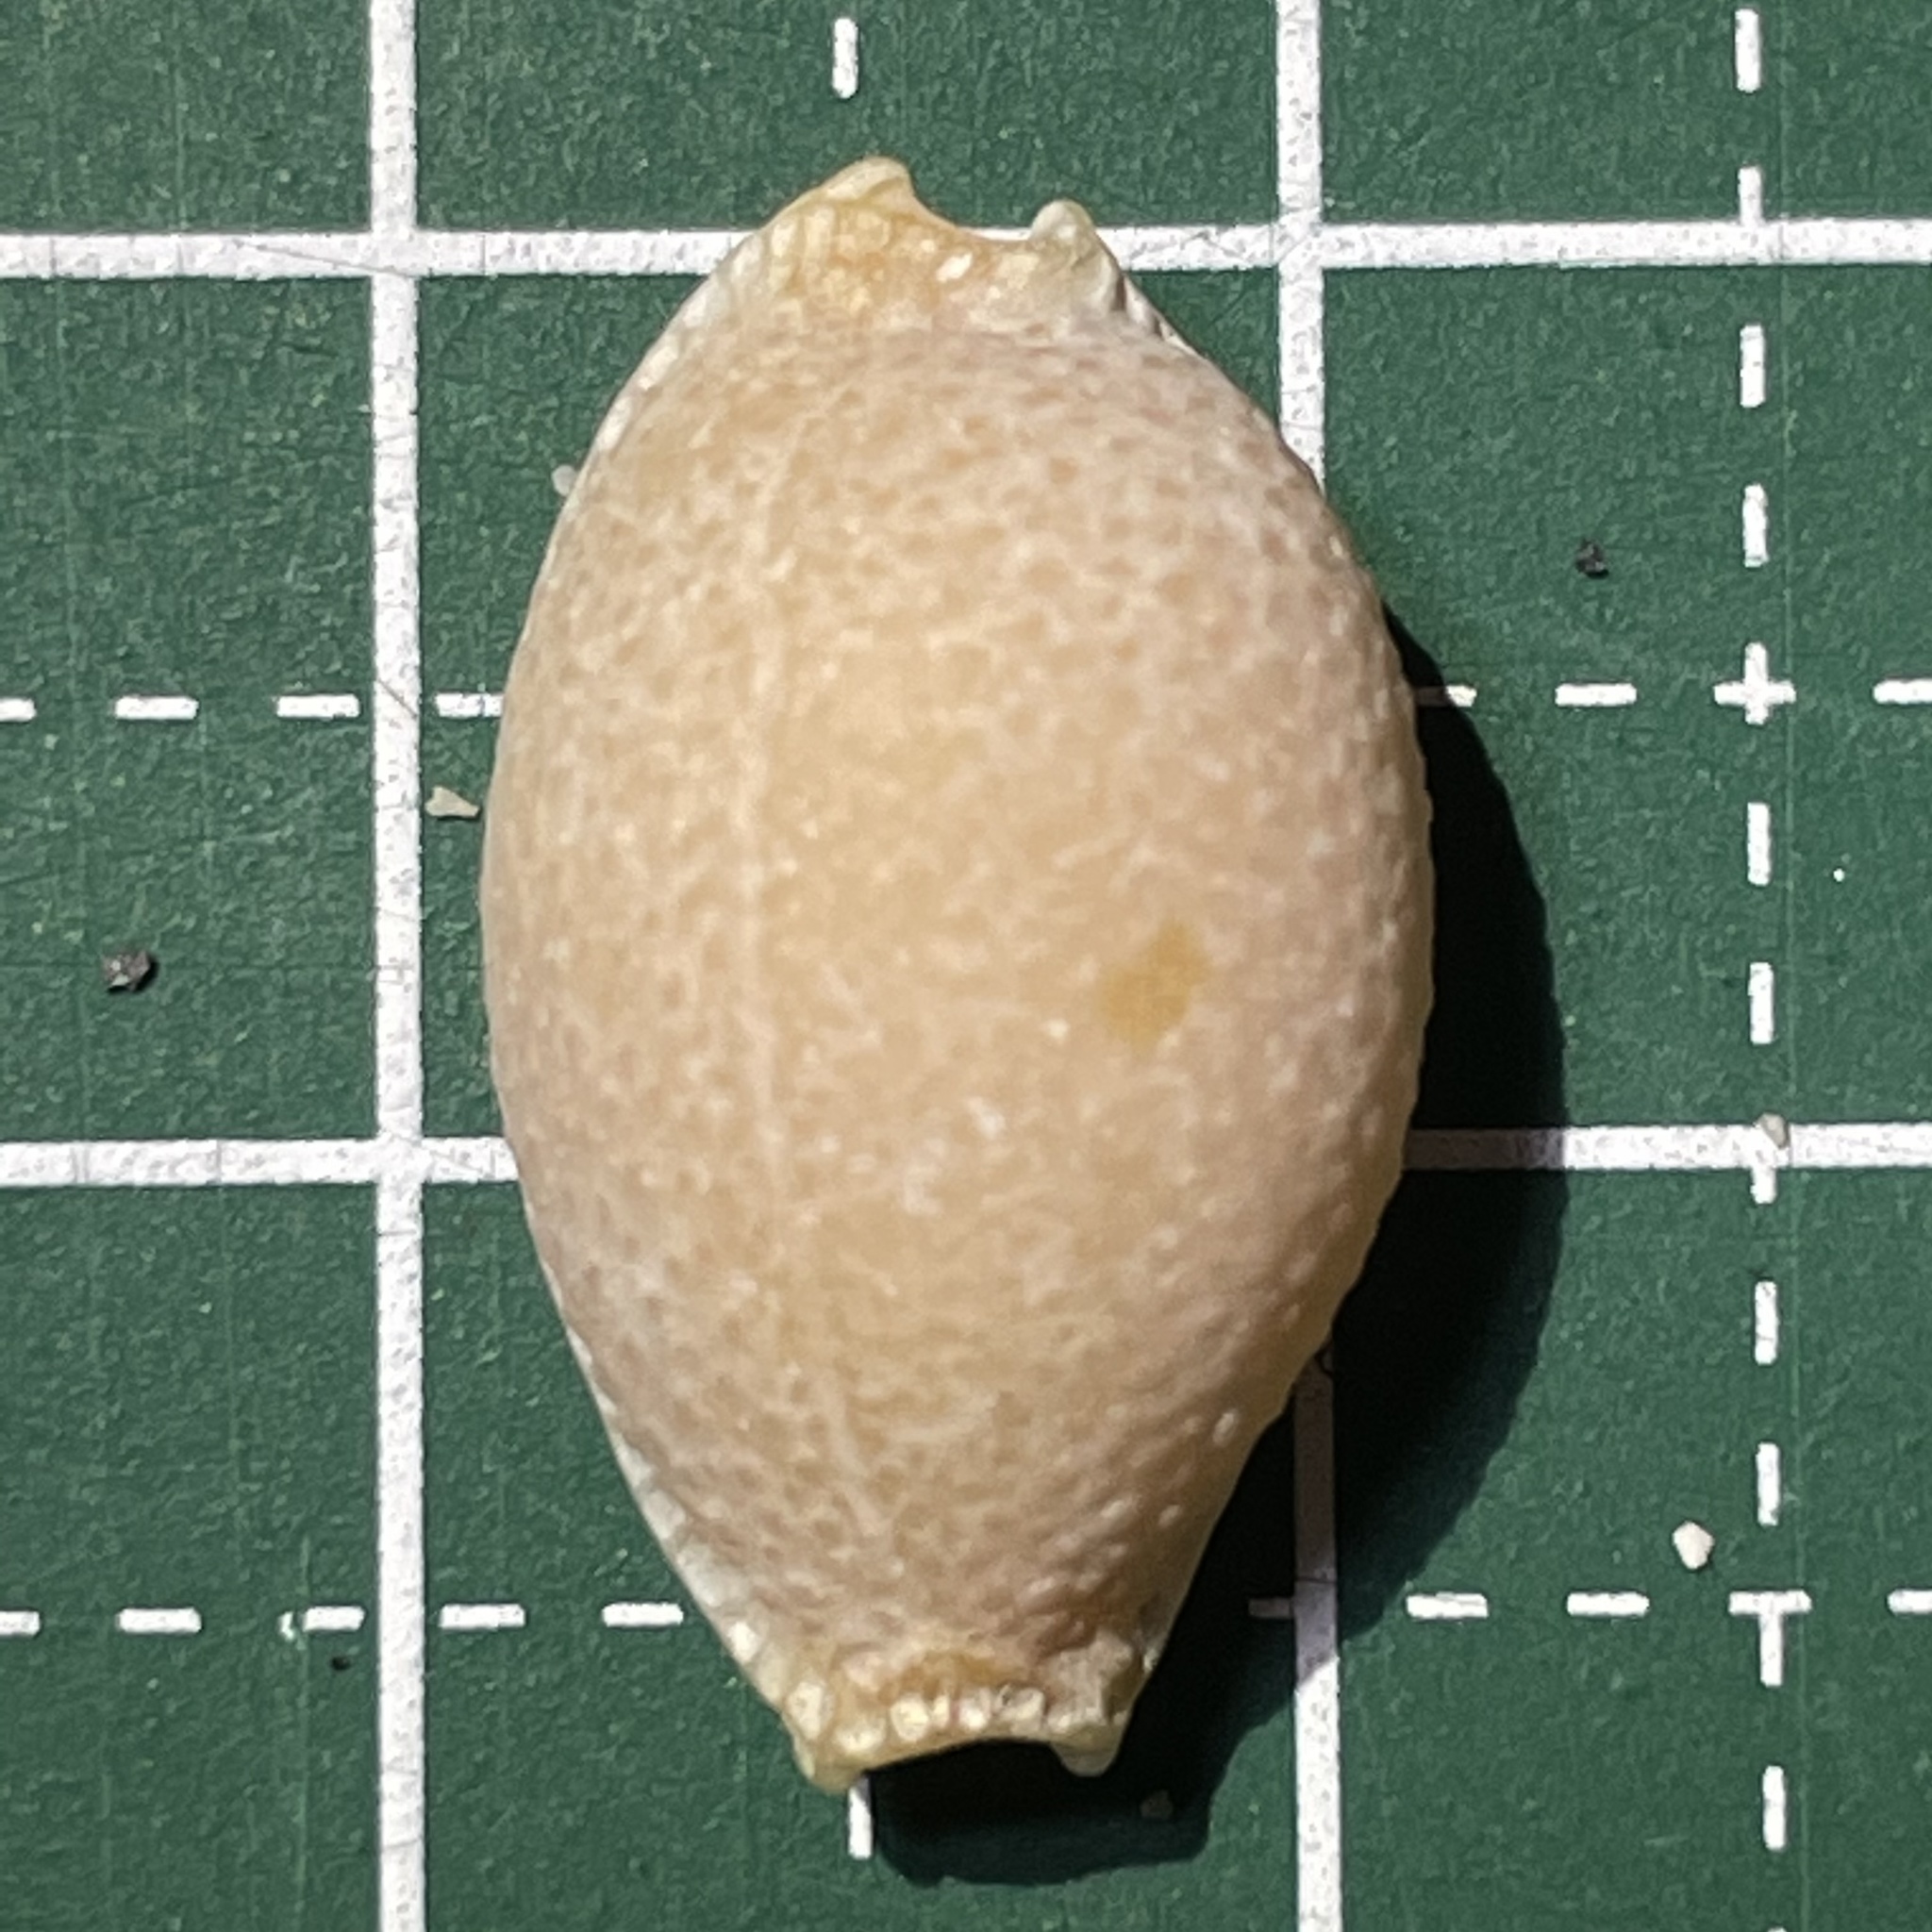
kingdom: Animalia
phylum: Mollusca
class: Gastropoda
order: Littorinimorpha
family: Cypraeidae
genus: Staphylaea
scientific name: Staphylaea staphylaea
